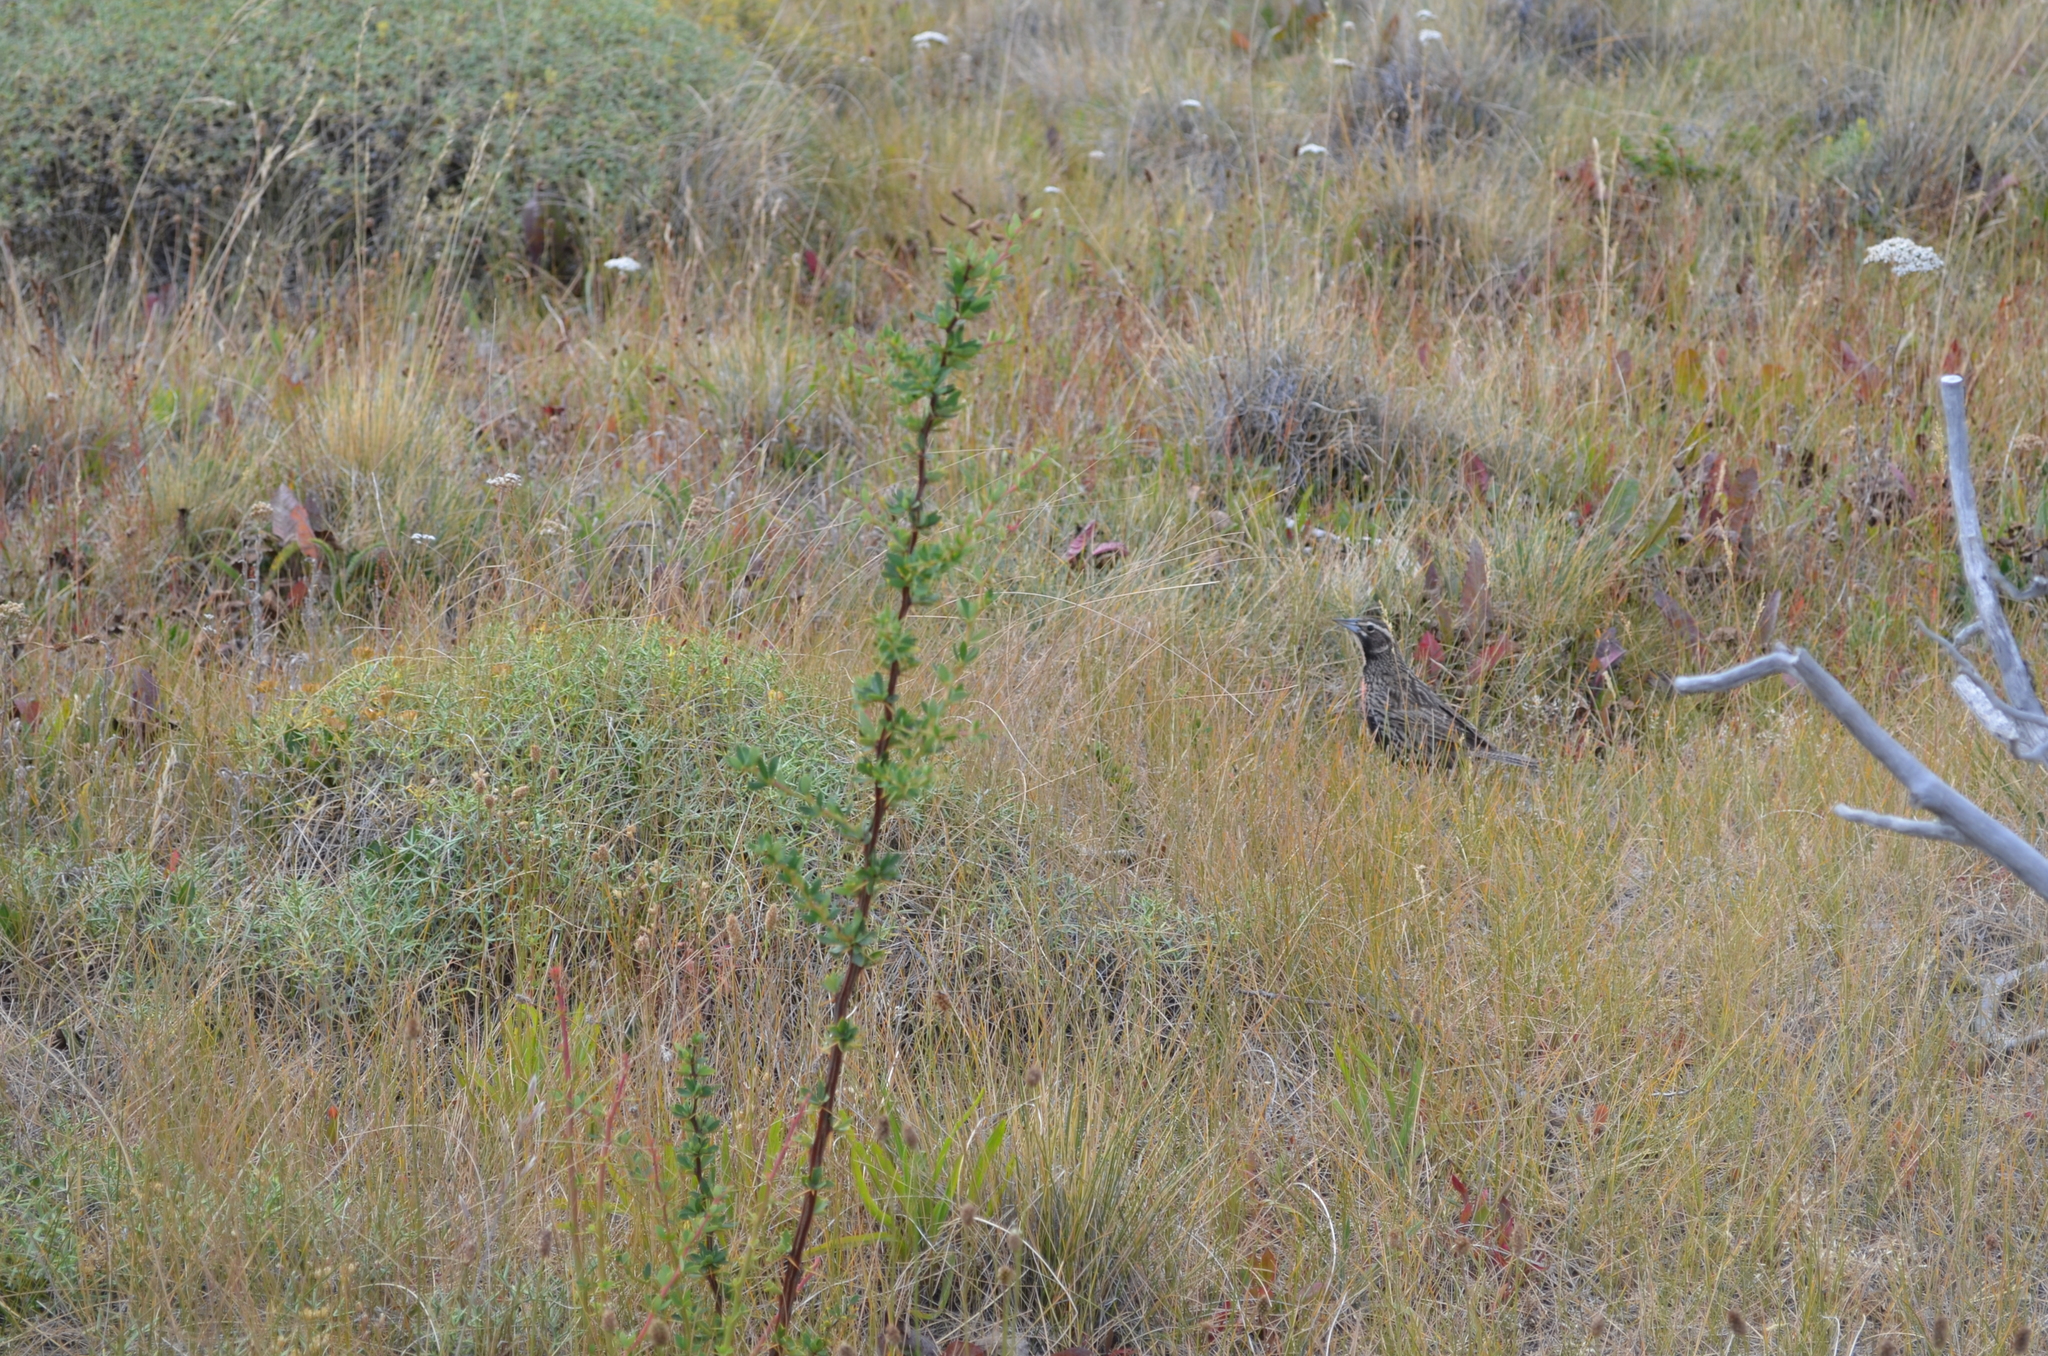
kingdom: Animalia
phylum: Chordata
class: Aves
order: Passeriformes
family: Icteridae
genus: Sturnella
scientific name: Sturnella loyca
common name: Long-tailed meadowlark
